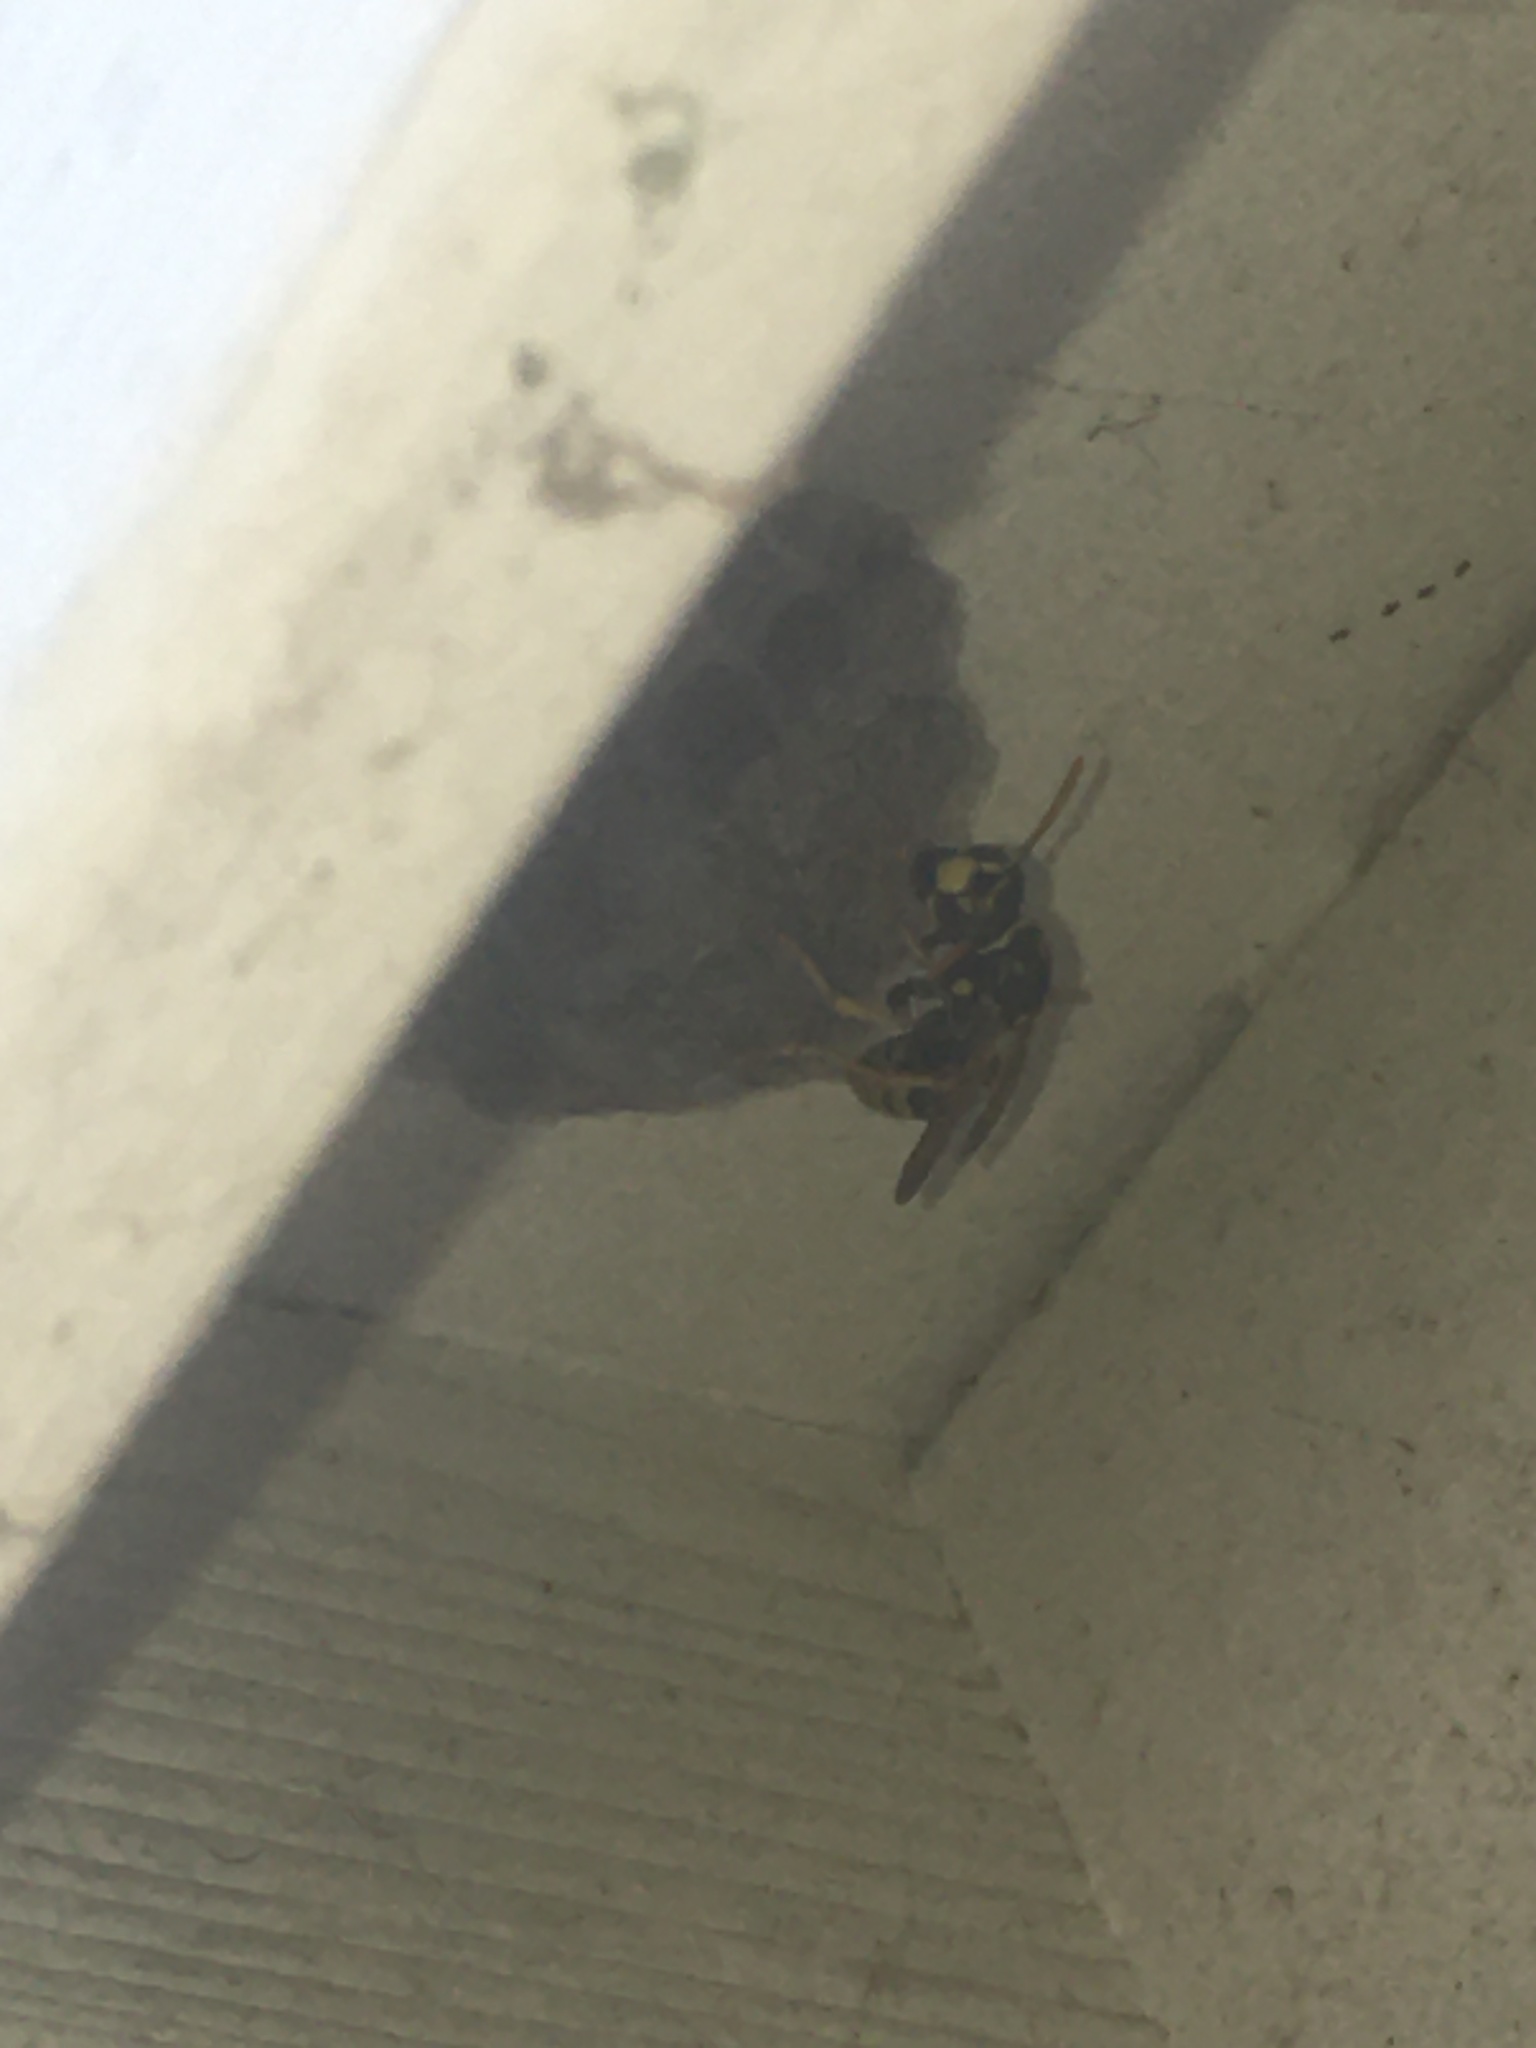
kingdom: Animalia
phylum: Arthropoda
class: Insecta
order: Hymenoptera
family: Eumenidae
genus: Polistes
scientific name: Polistes dominula
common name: Paper wasp
